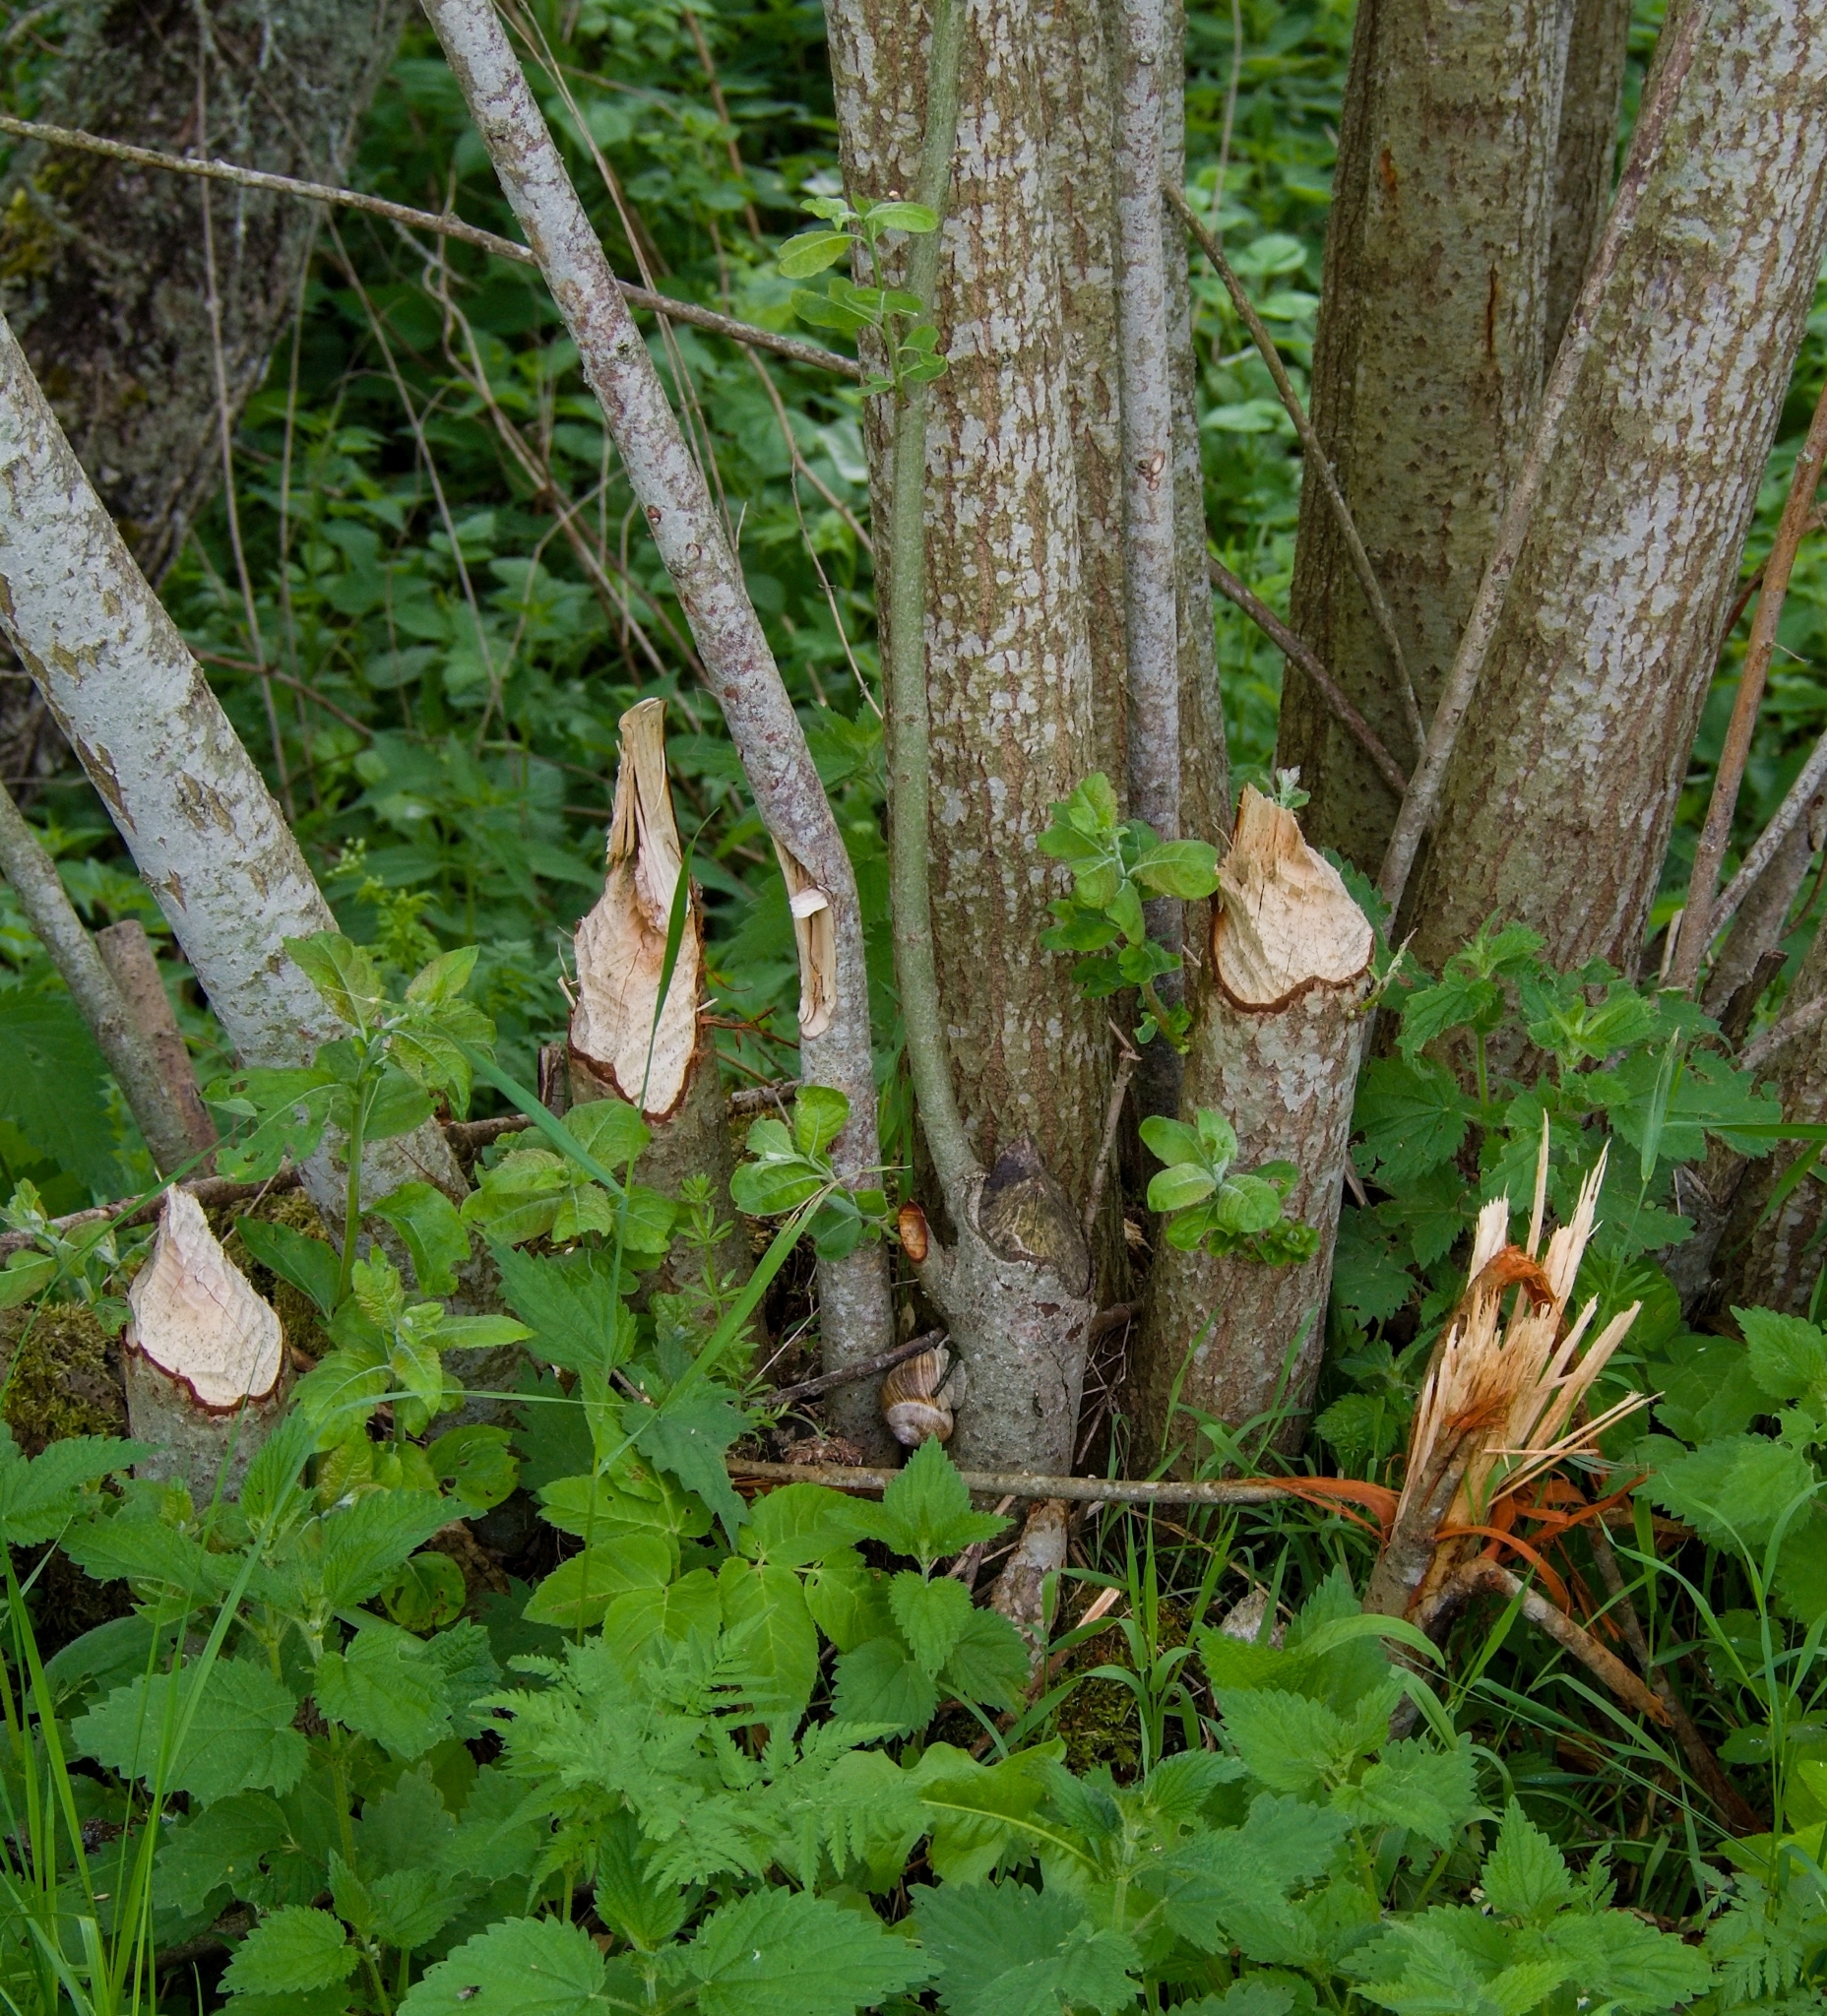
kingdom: Animalia
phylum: Chordata
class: Mammalia
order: Rodentia
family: Castoridae
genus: Castor
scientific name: Castor fiber
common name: Eurasian beaver
